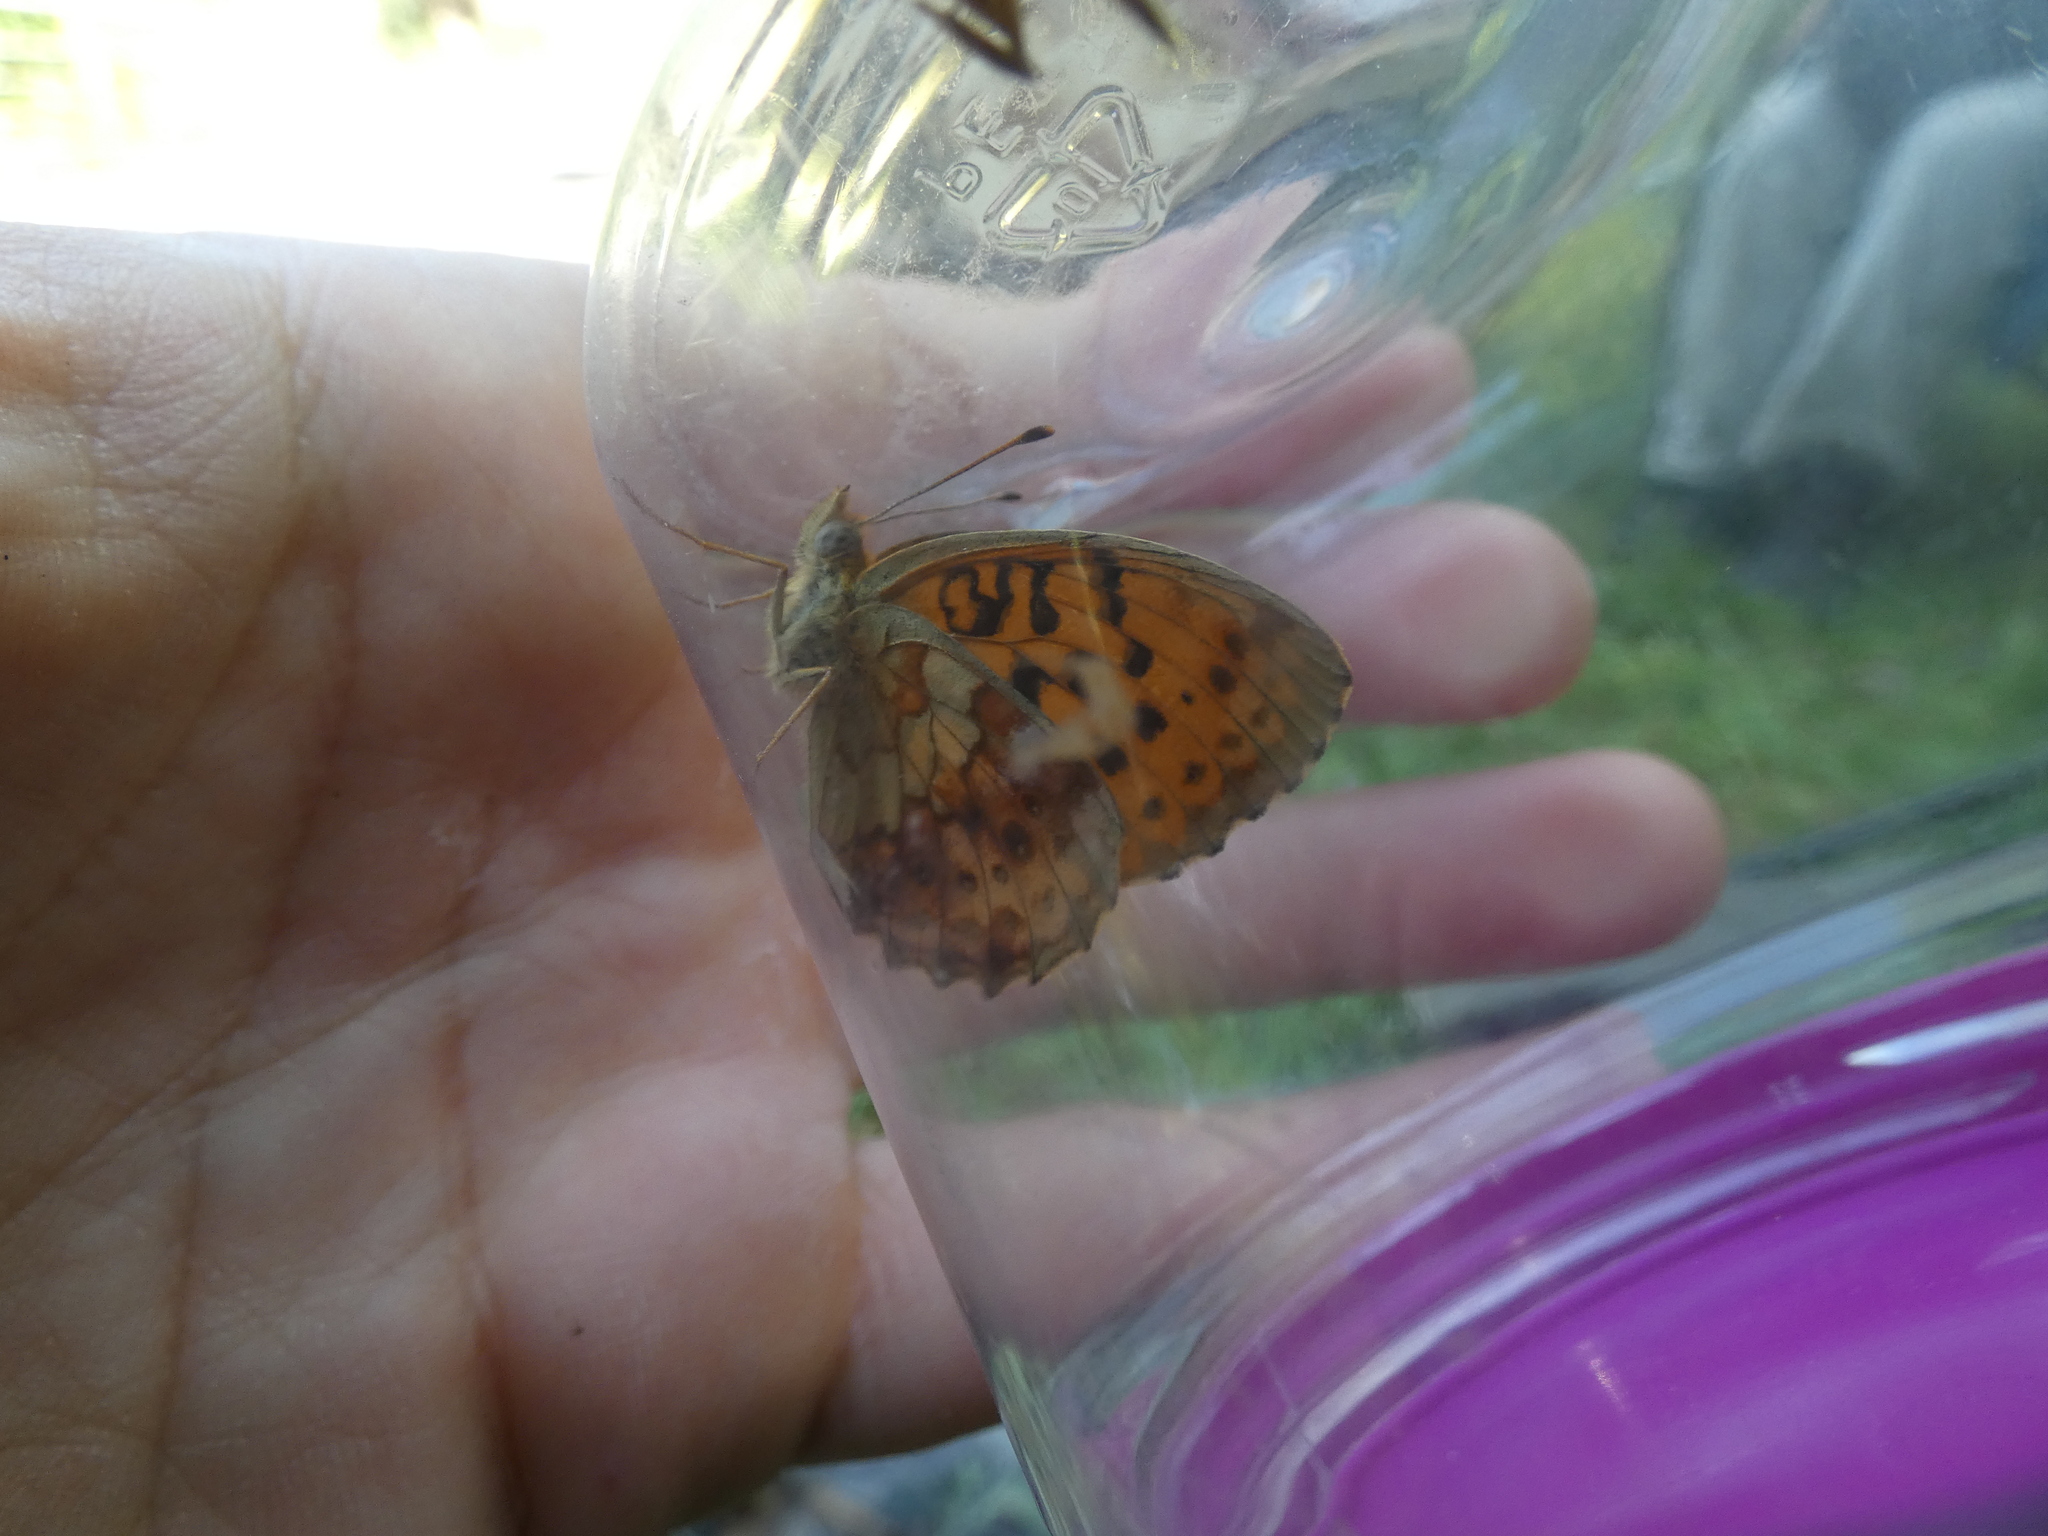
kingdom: Animalia
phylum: Arthropoda
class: Insecta
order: Lepidoptera
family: Nymphalidae
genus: Brenthis
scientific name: Brenthis daphne
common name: Marbled fritillary
